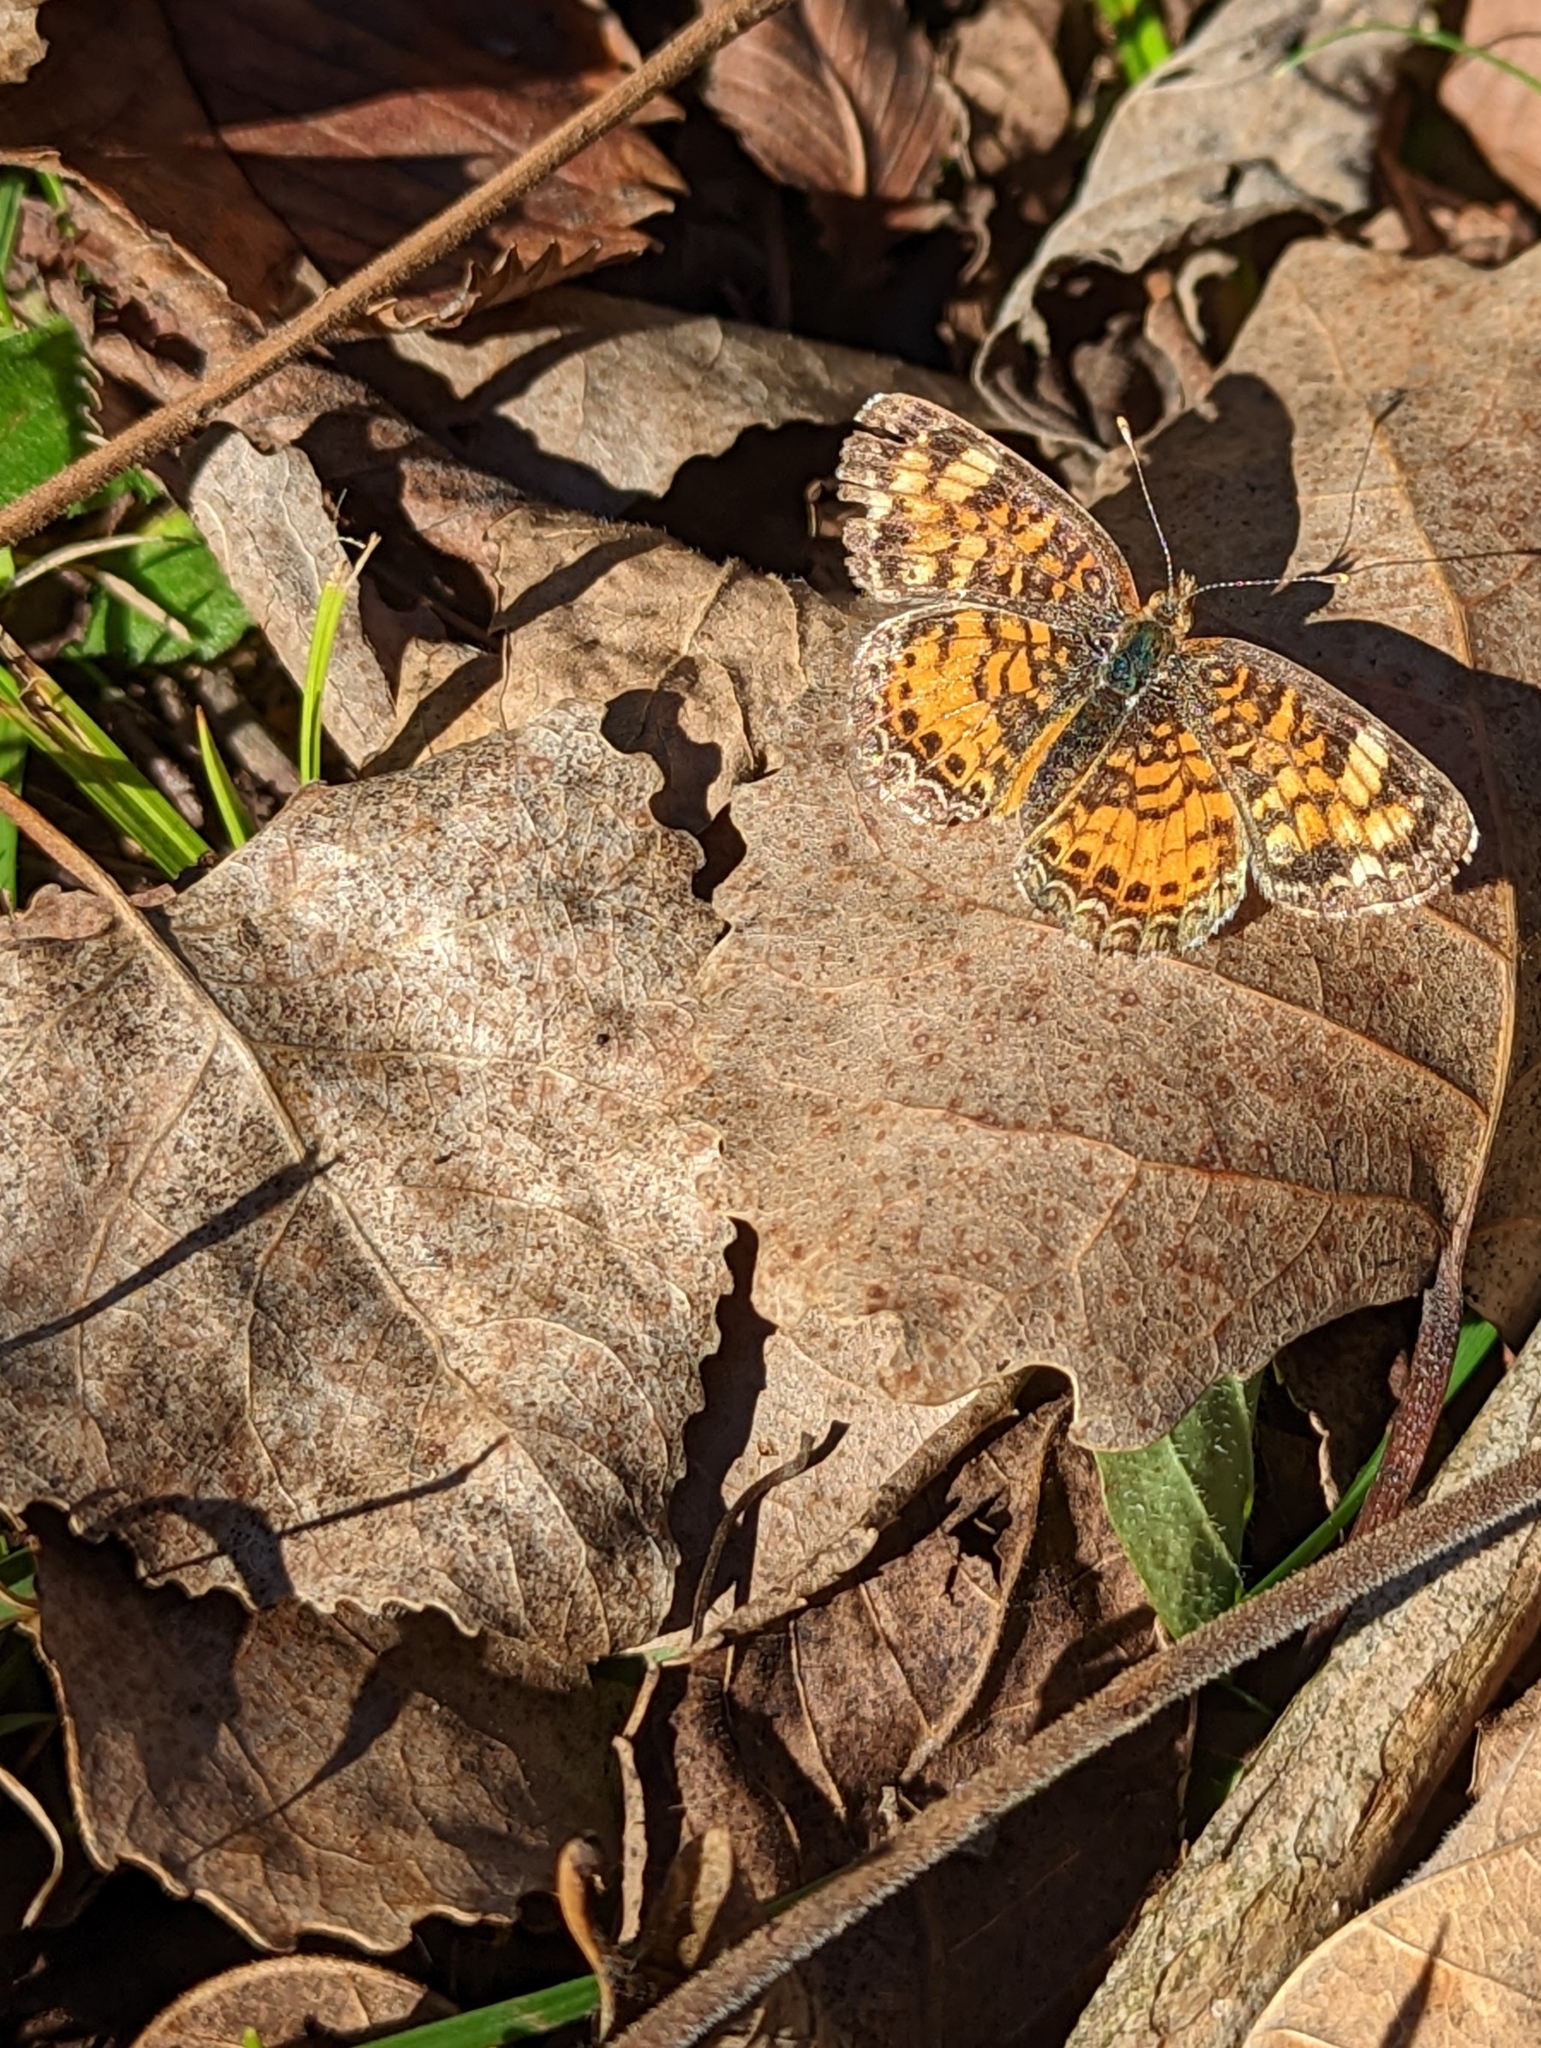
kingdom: Animalia
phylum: Arthropoda
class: Insecta
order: Lepidoptera
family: Nymphalidae
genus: Phyciodes
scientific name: Phyciodes tharos
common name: Pearl crescent
